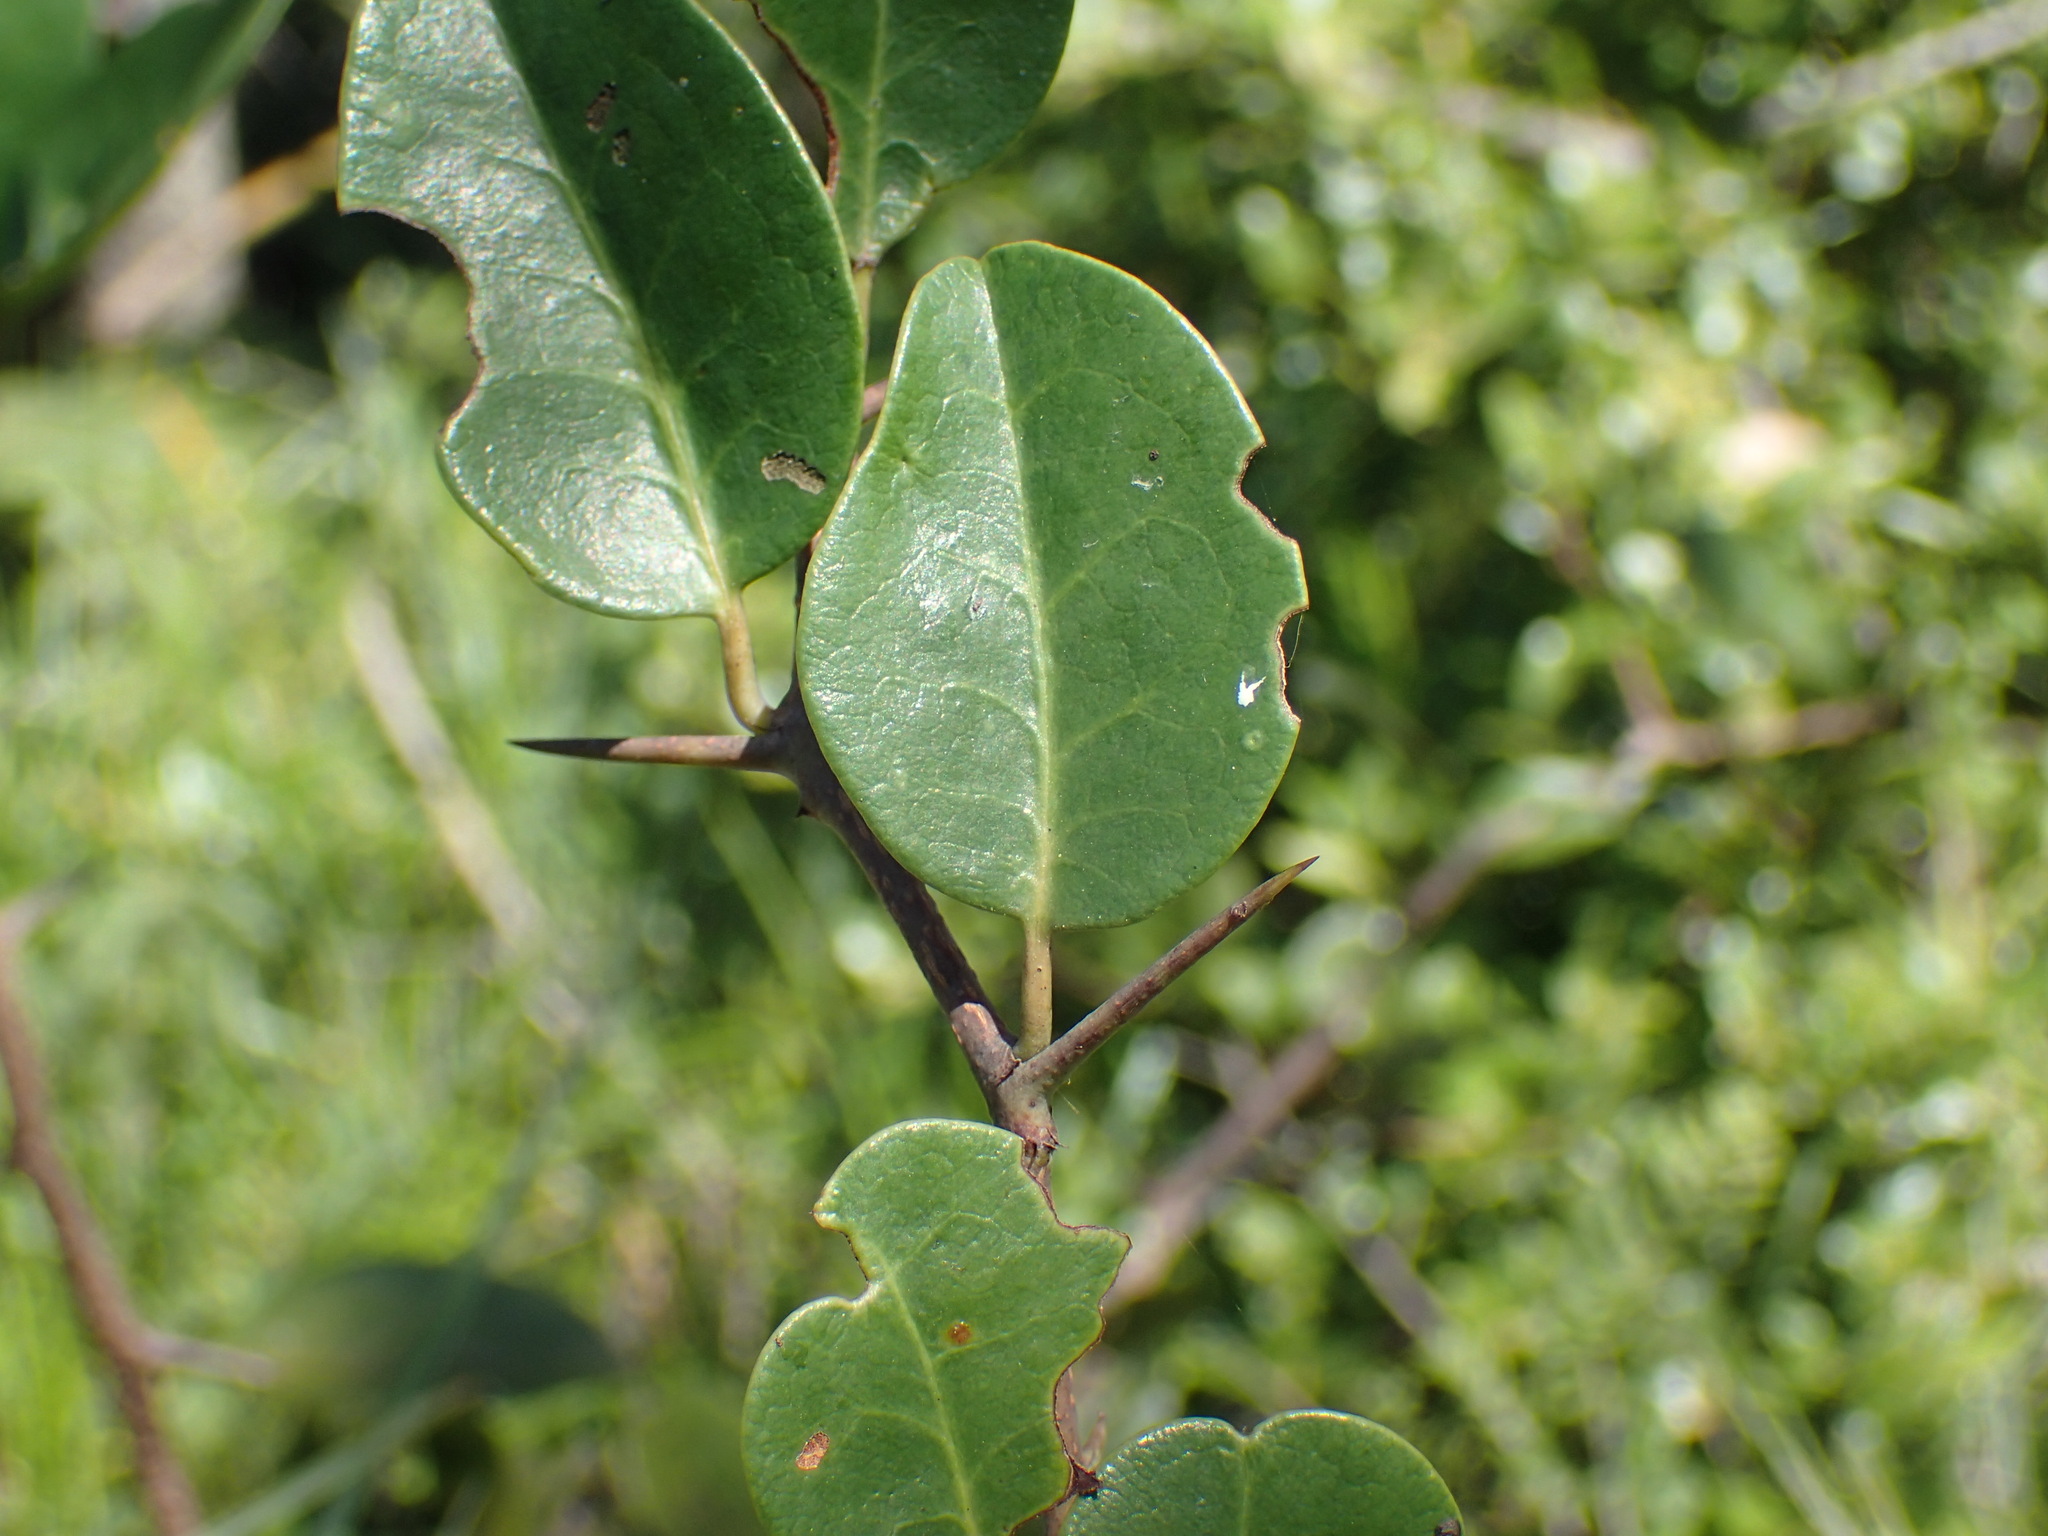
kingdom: Plantae
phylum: Tracheophyta
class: Magnoliopsida
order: Celastrales
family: Celastraceae
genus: Putterlickia
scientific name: Putterlickia retrospinosa
